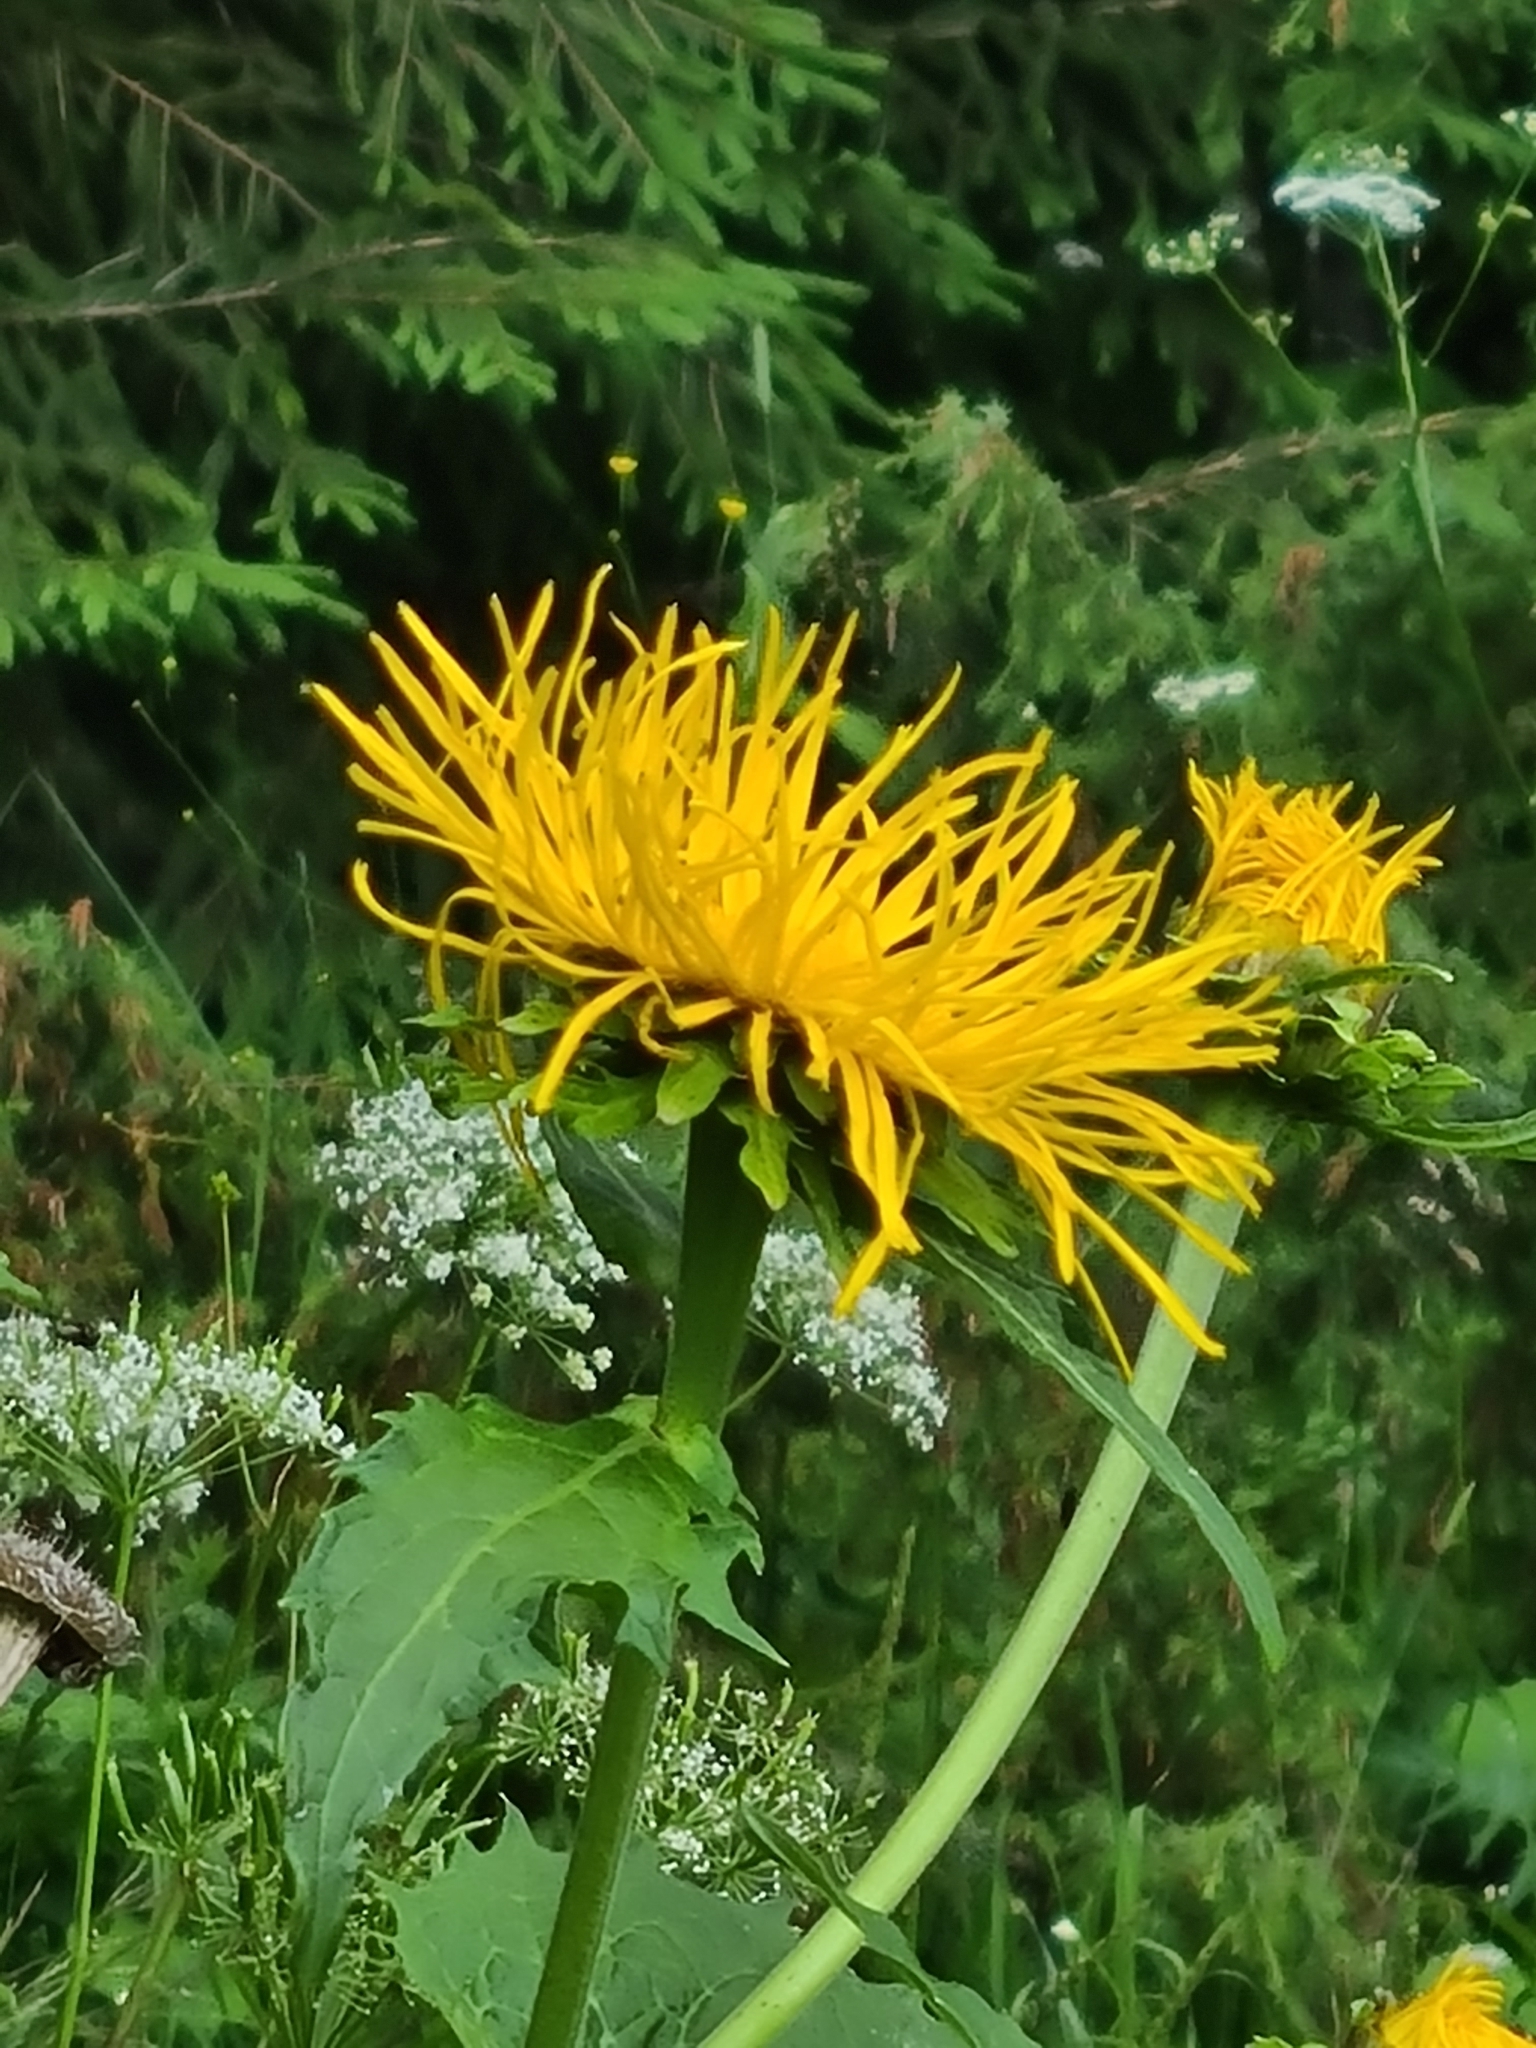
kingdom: Plantae
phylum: Tracheophyta
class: Magnoliopsida
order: Asterales
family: Asteraceae
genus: Telekia
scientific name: Telekia speciosa
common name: Yellow oxeye
